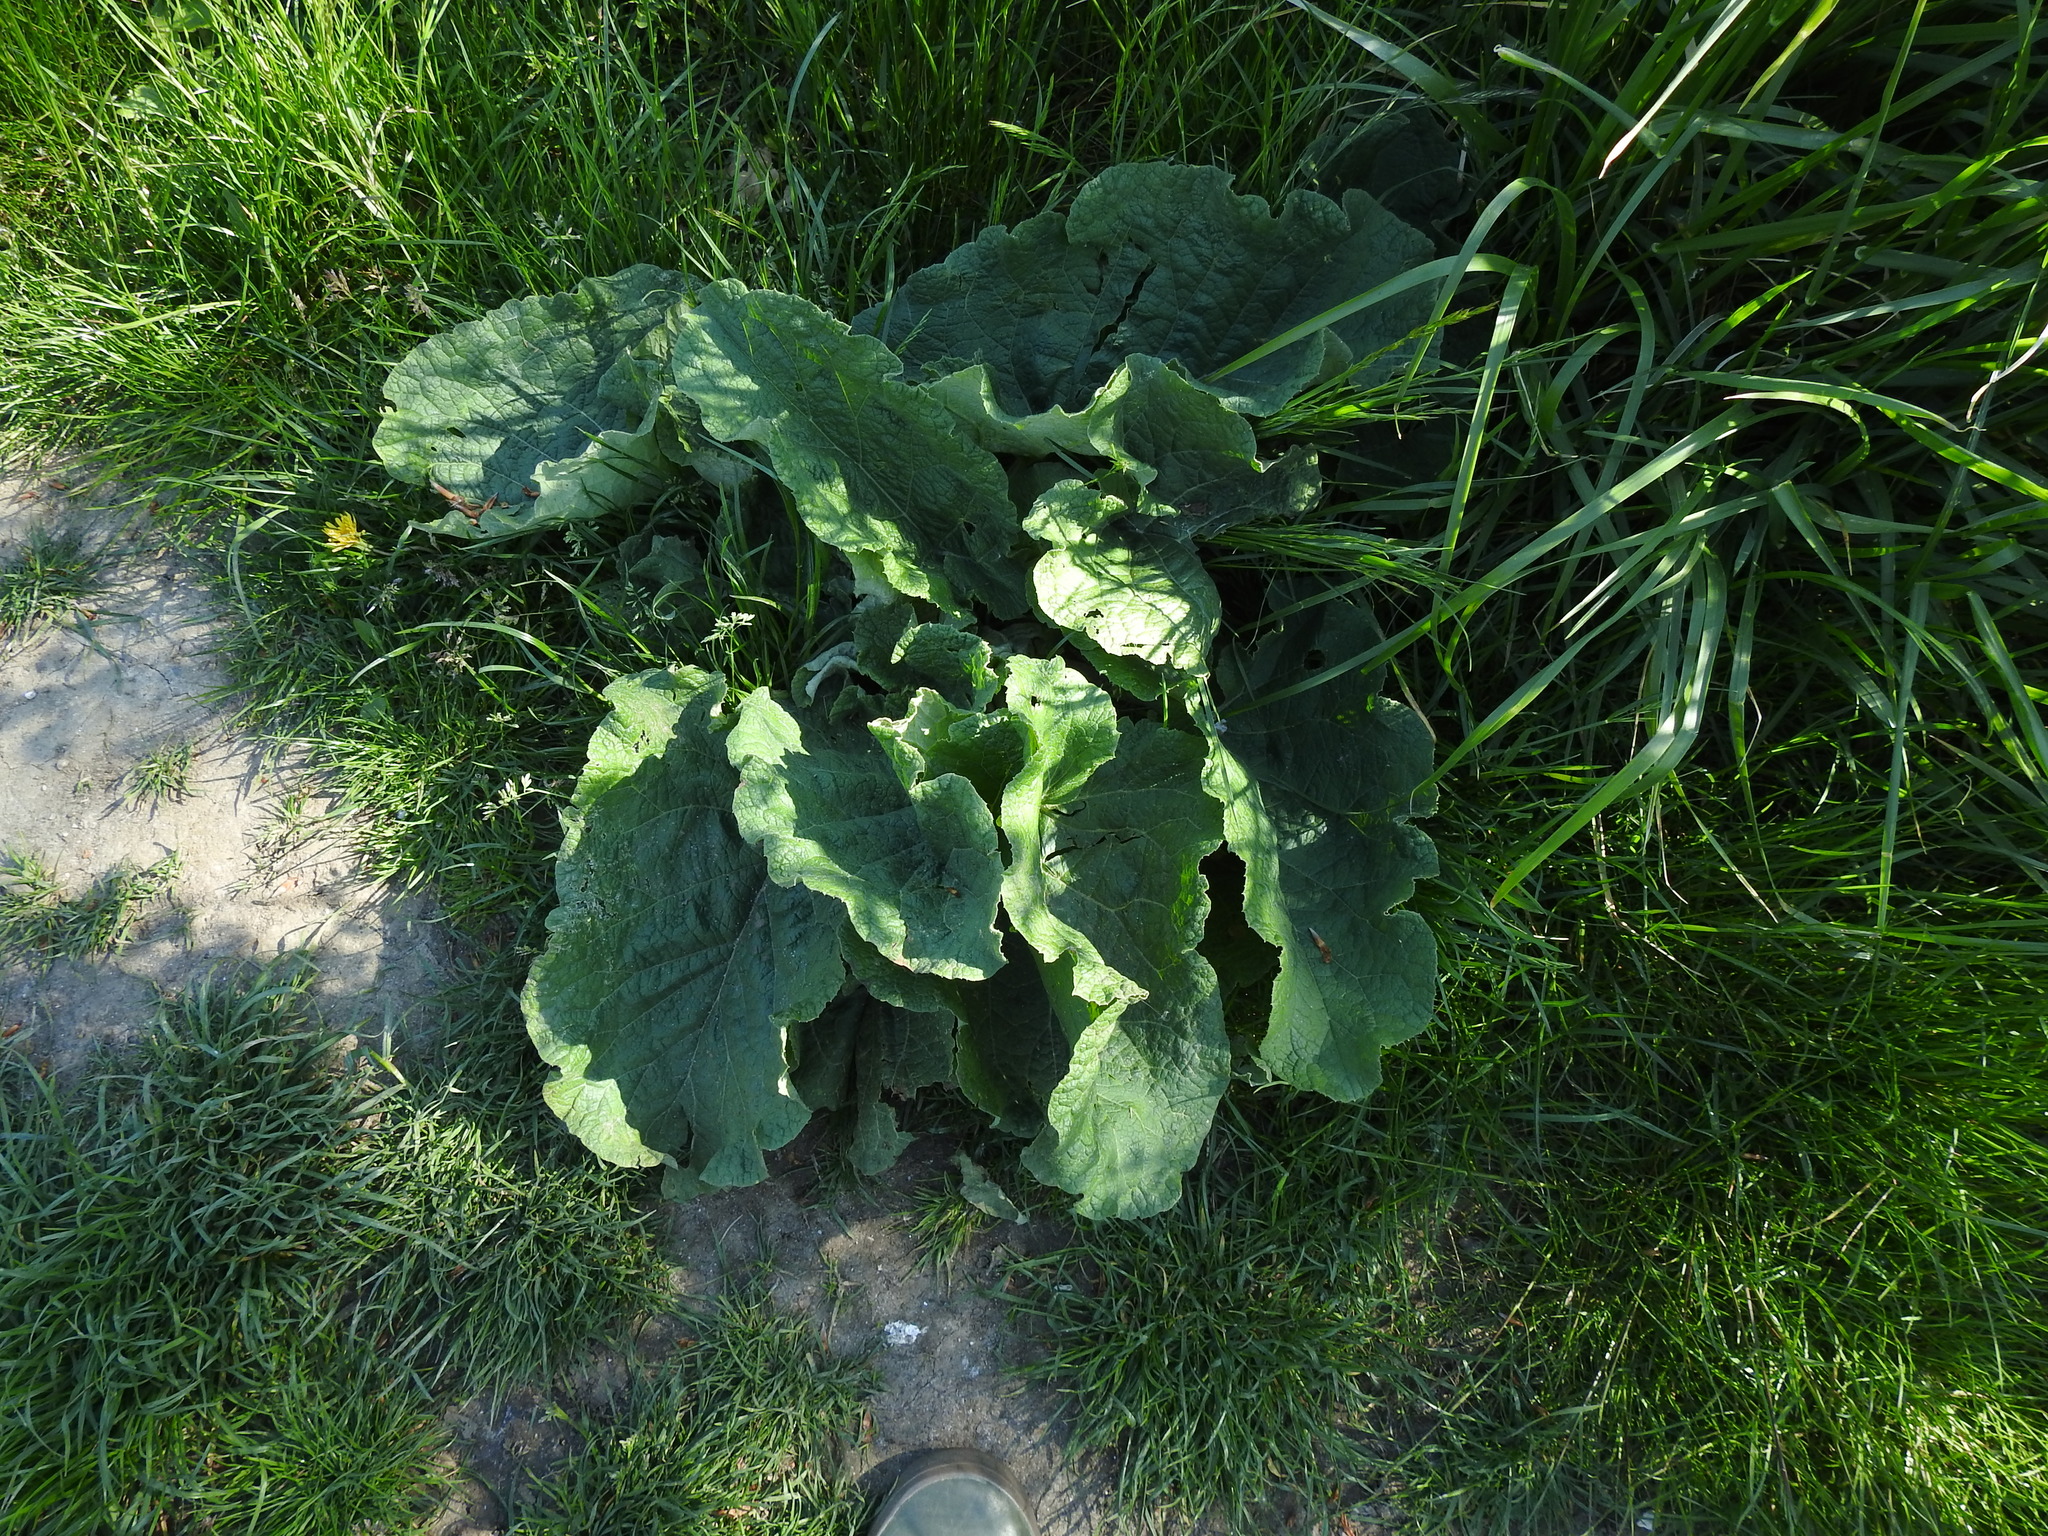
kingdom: Plantae
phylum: Tracheophyta
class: Magnoliopsida
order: Asterales
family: Asteraceae
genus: Arctium
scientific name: Arctium
